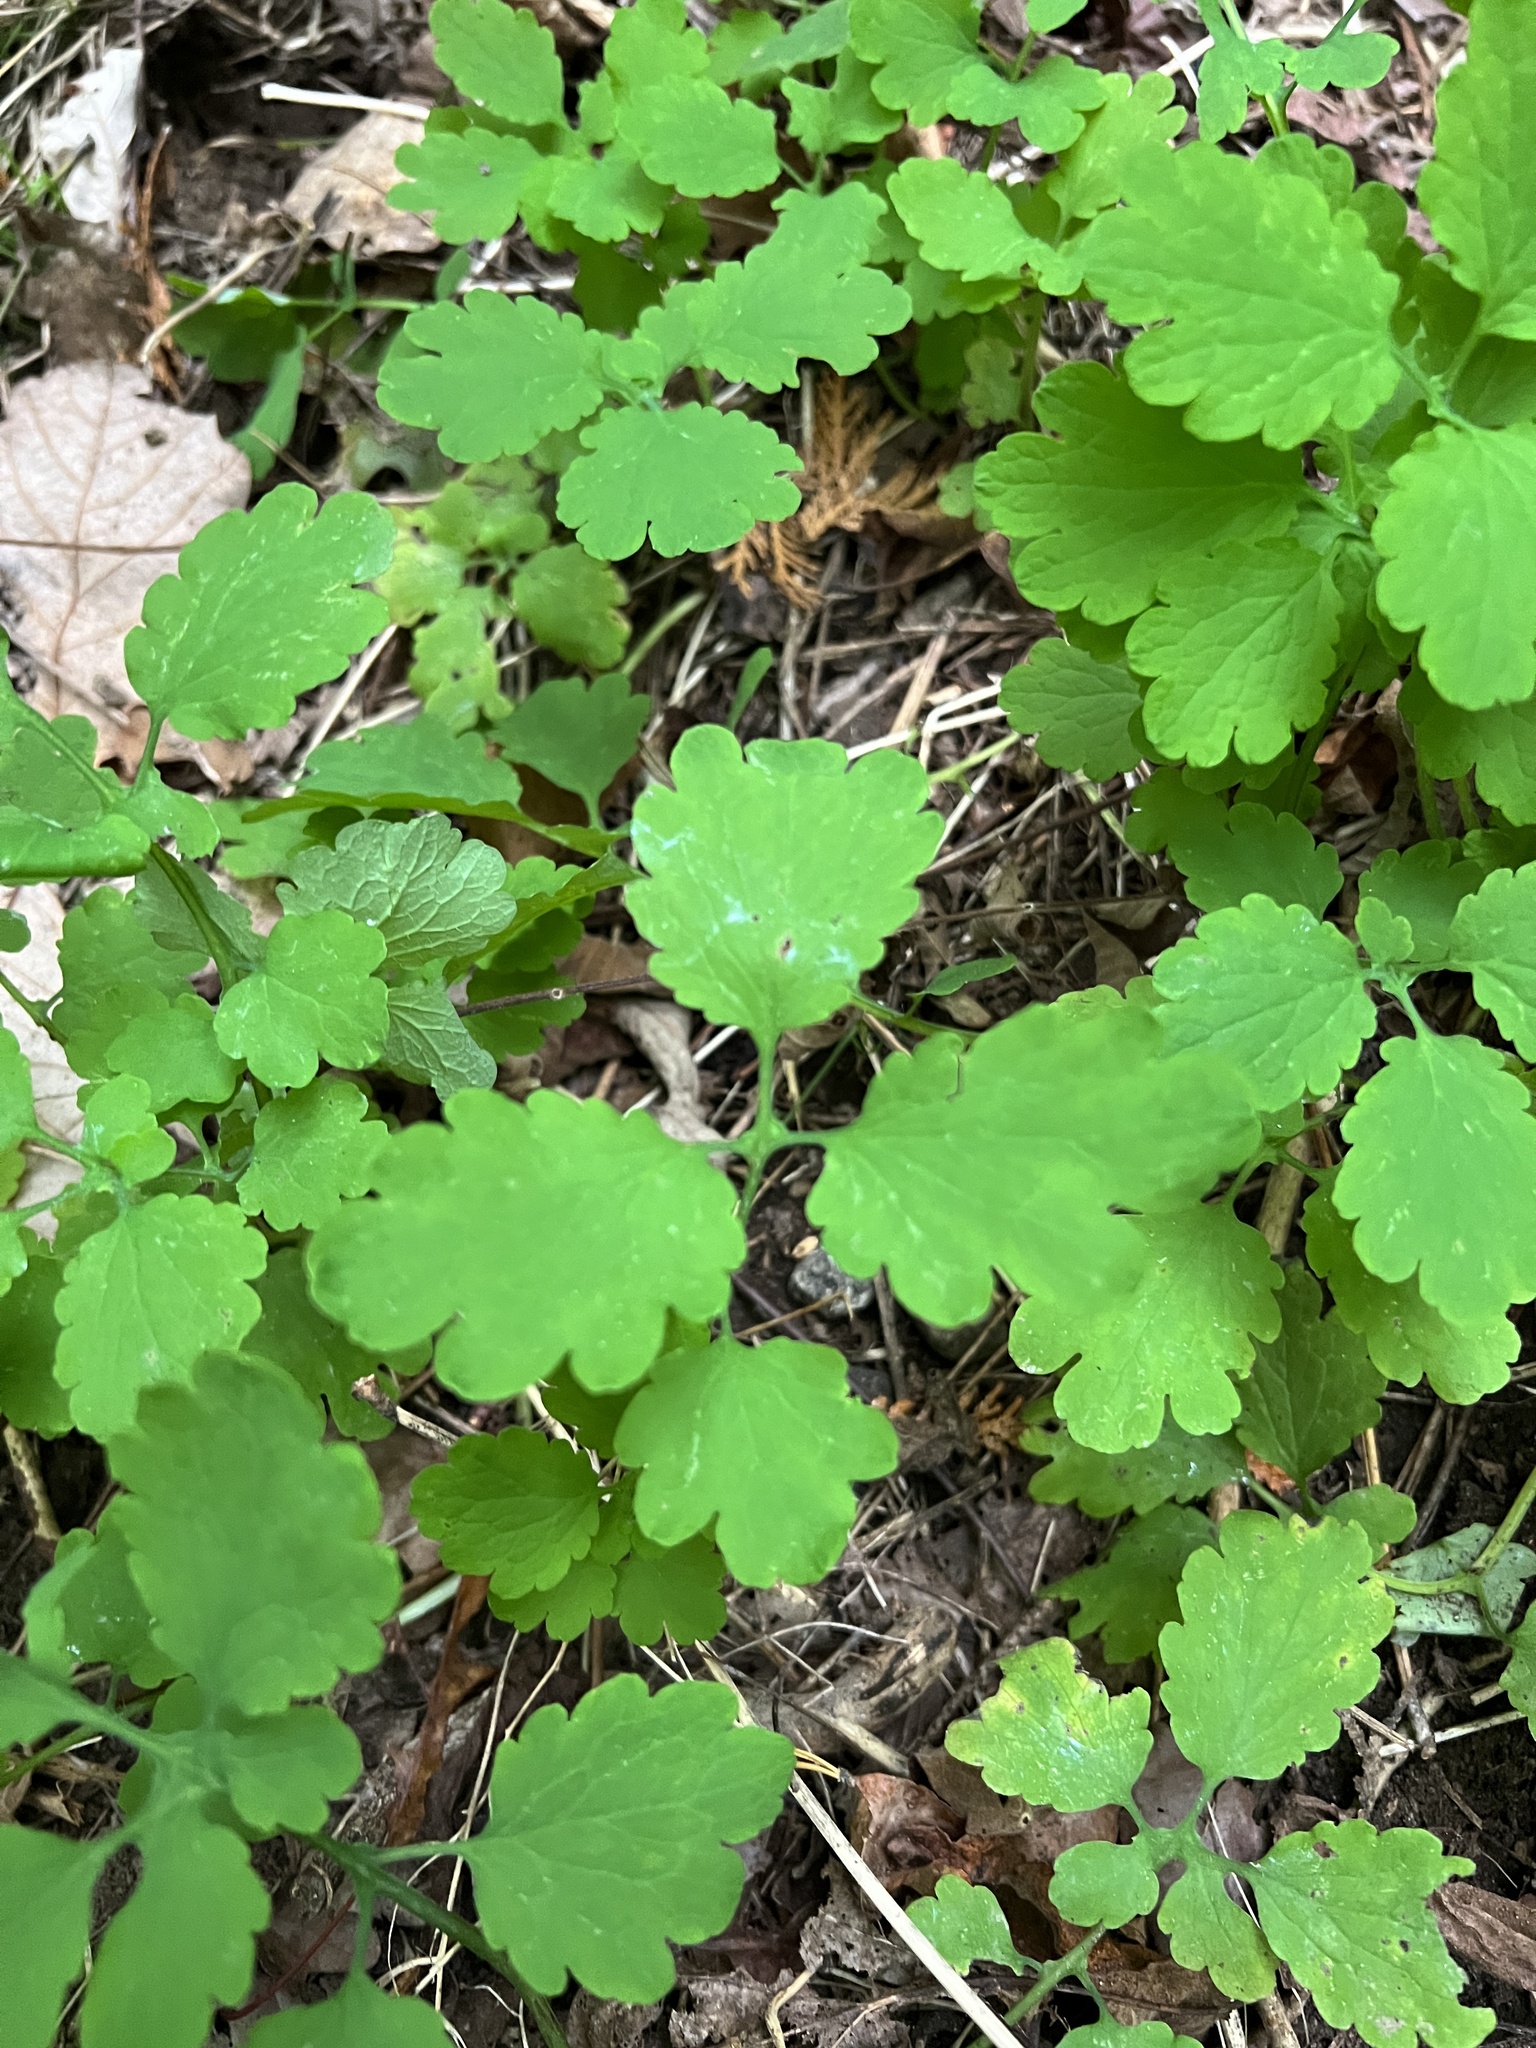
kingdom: Plantae
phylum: Tracheophyta
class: Magnoliopsida
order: Ranunculales
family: Papaveraceae
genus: Chelidonium
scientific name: Chelidonium majus
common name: Greater celandine
